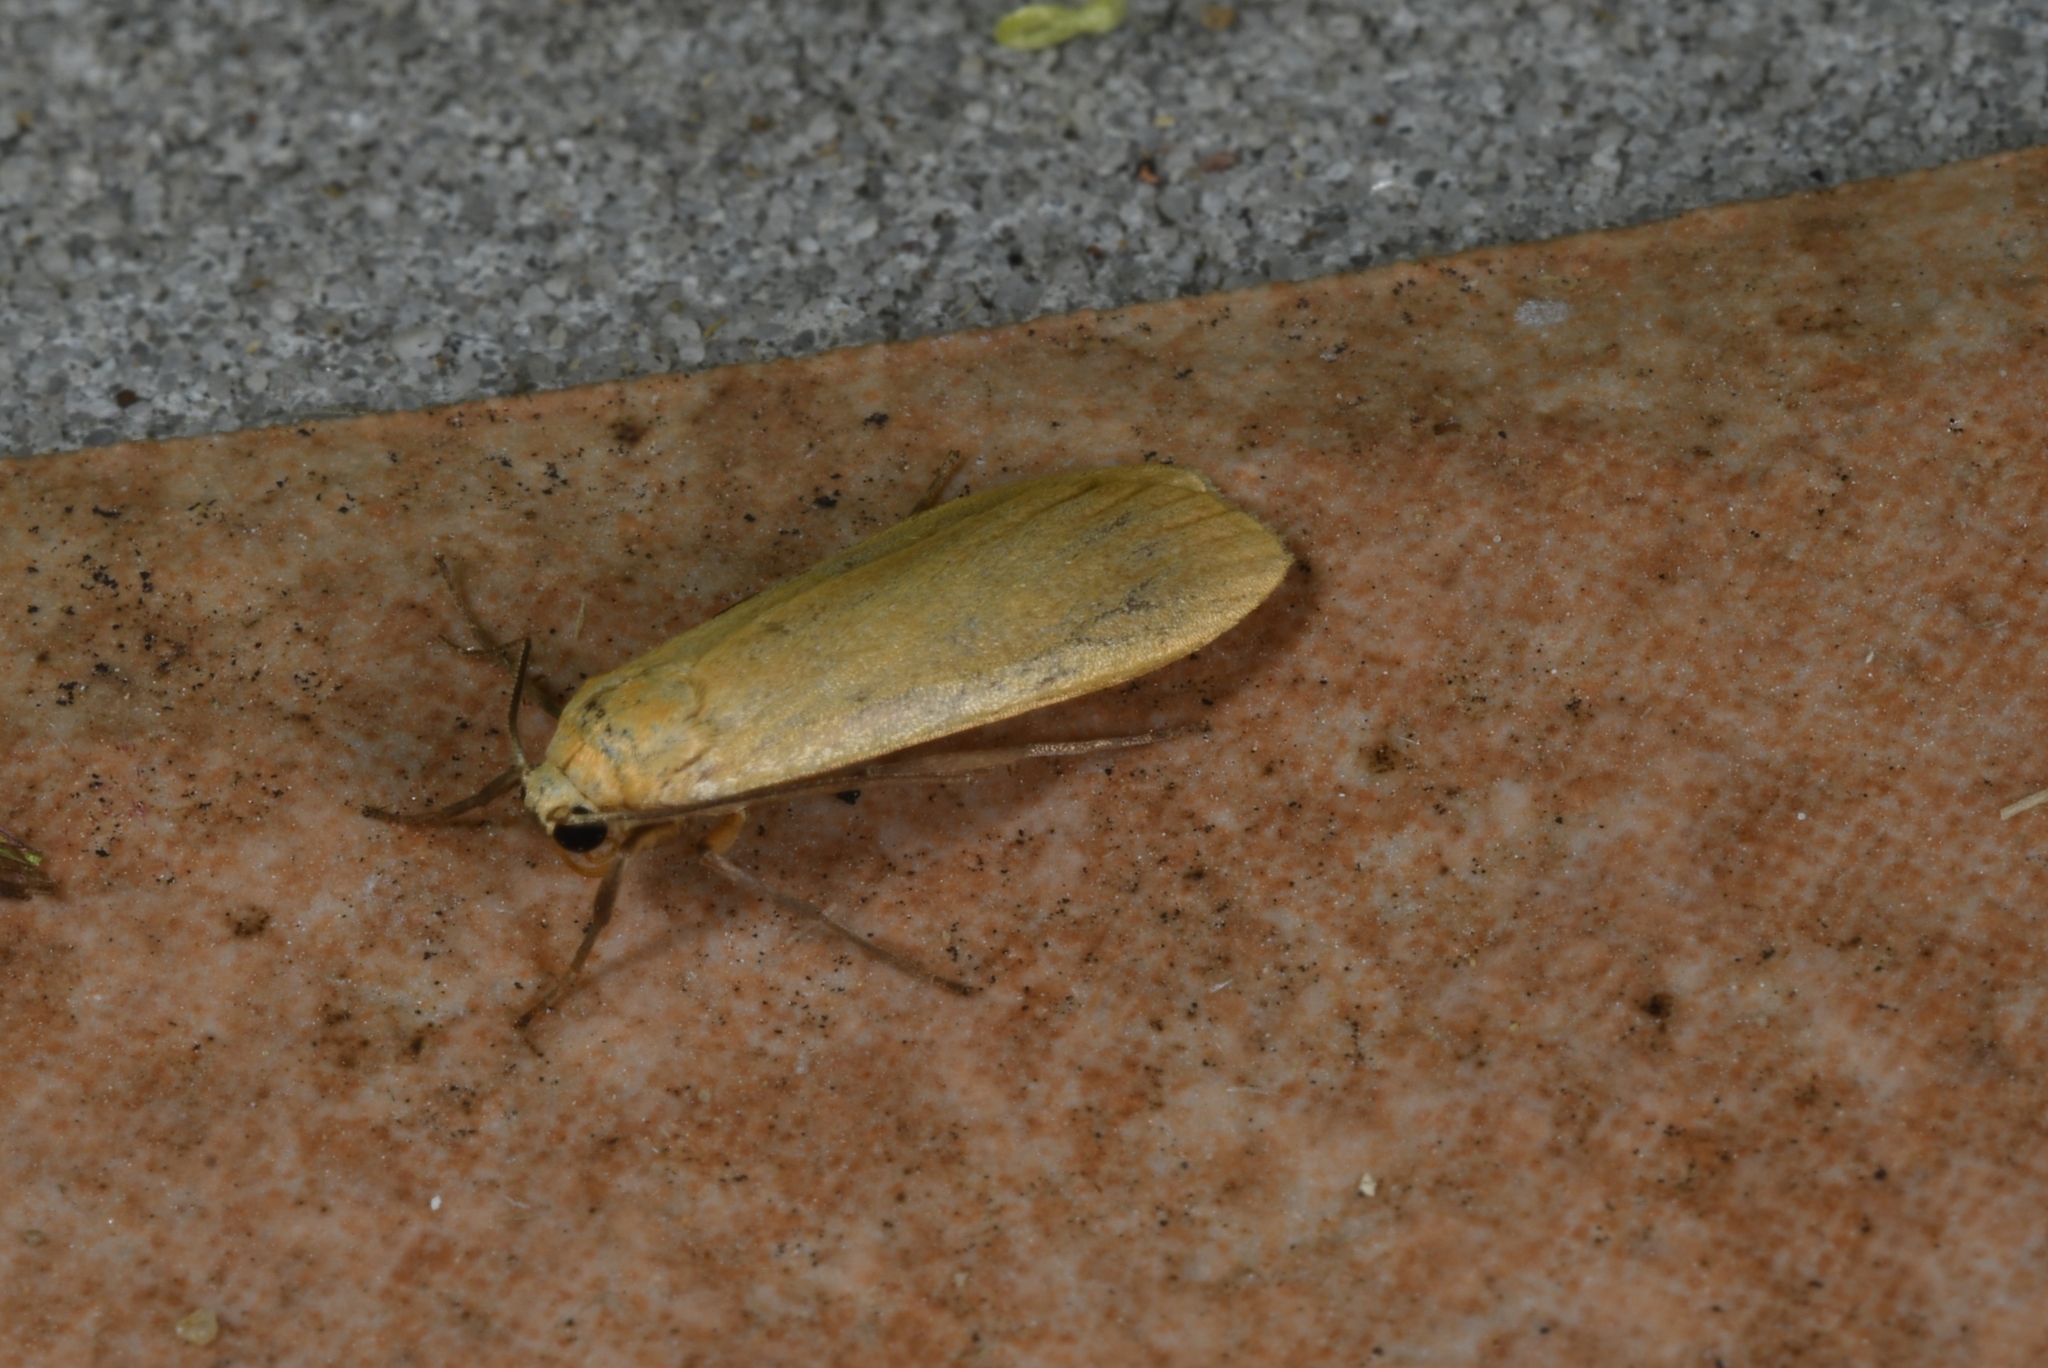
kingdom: Animalia
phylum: Arthropoda
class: Insecta
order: Lepidoptera
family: Erebidae
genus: Wittia
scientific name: Wittia sororcula
